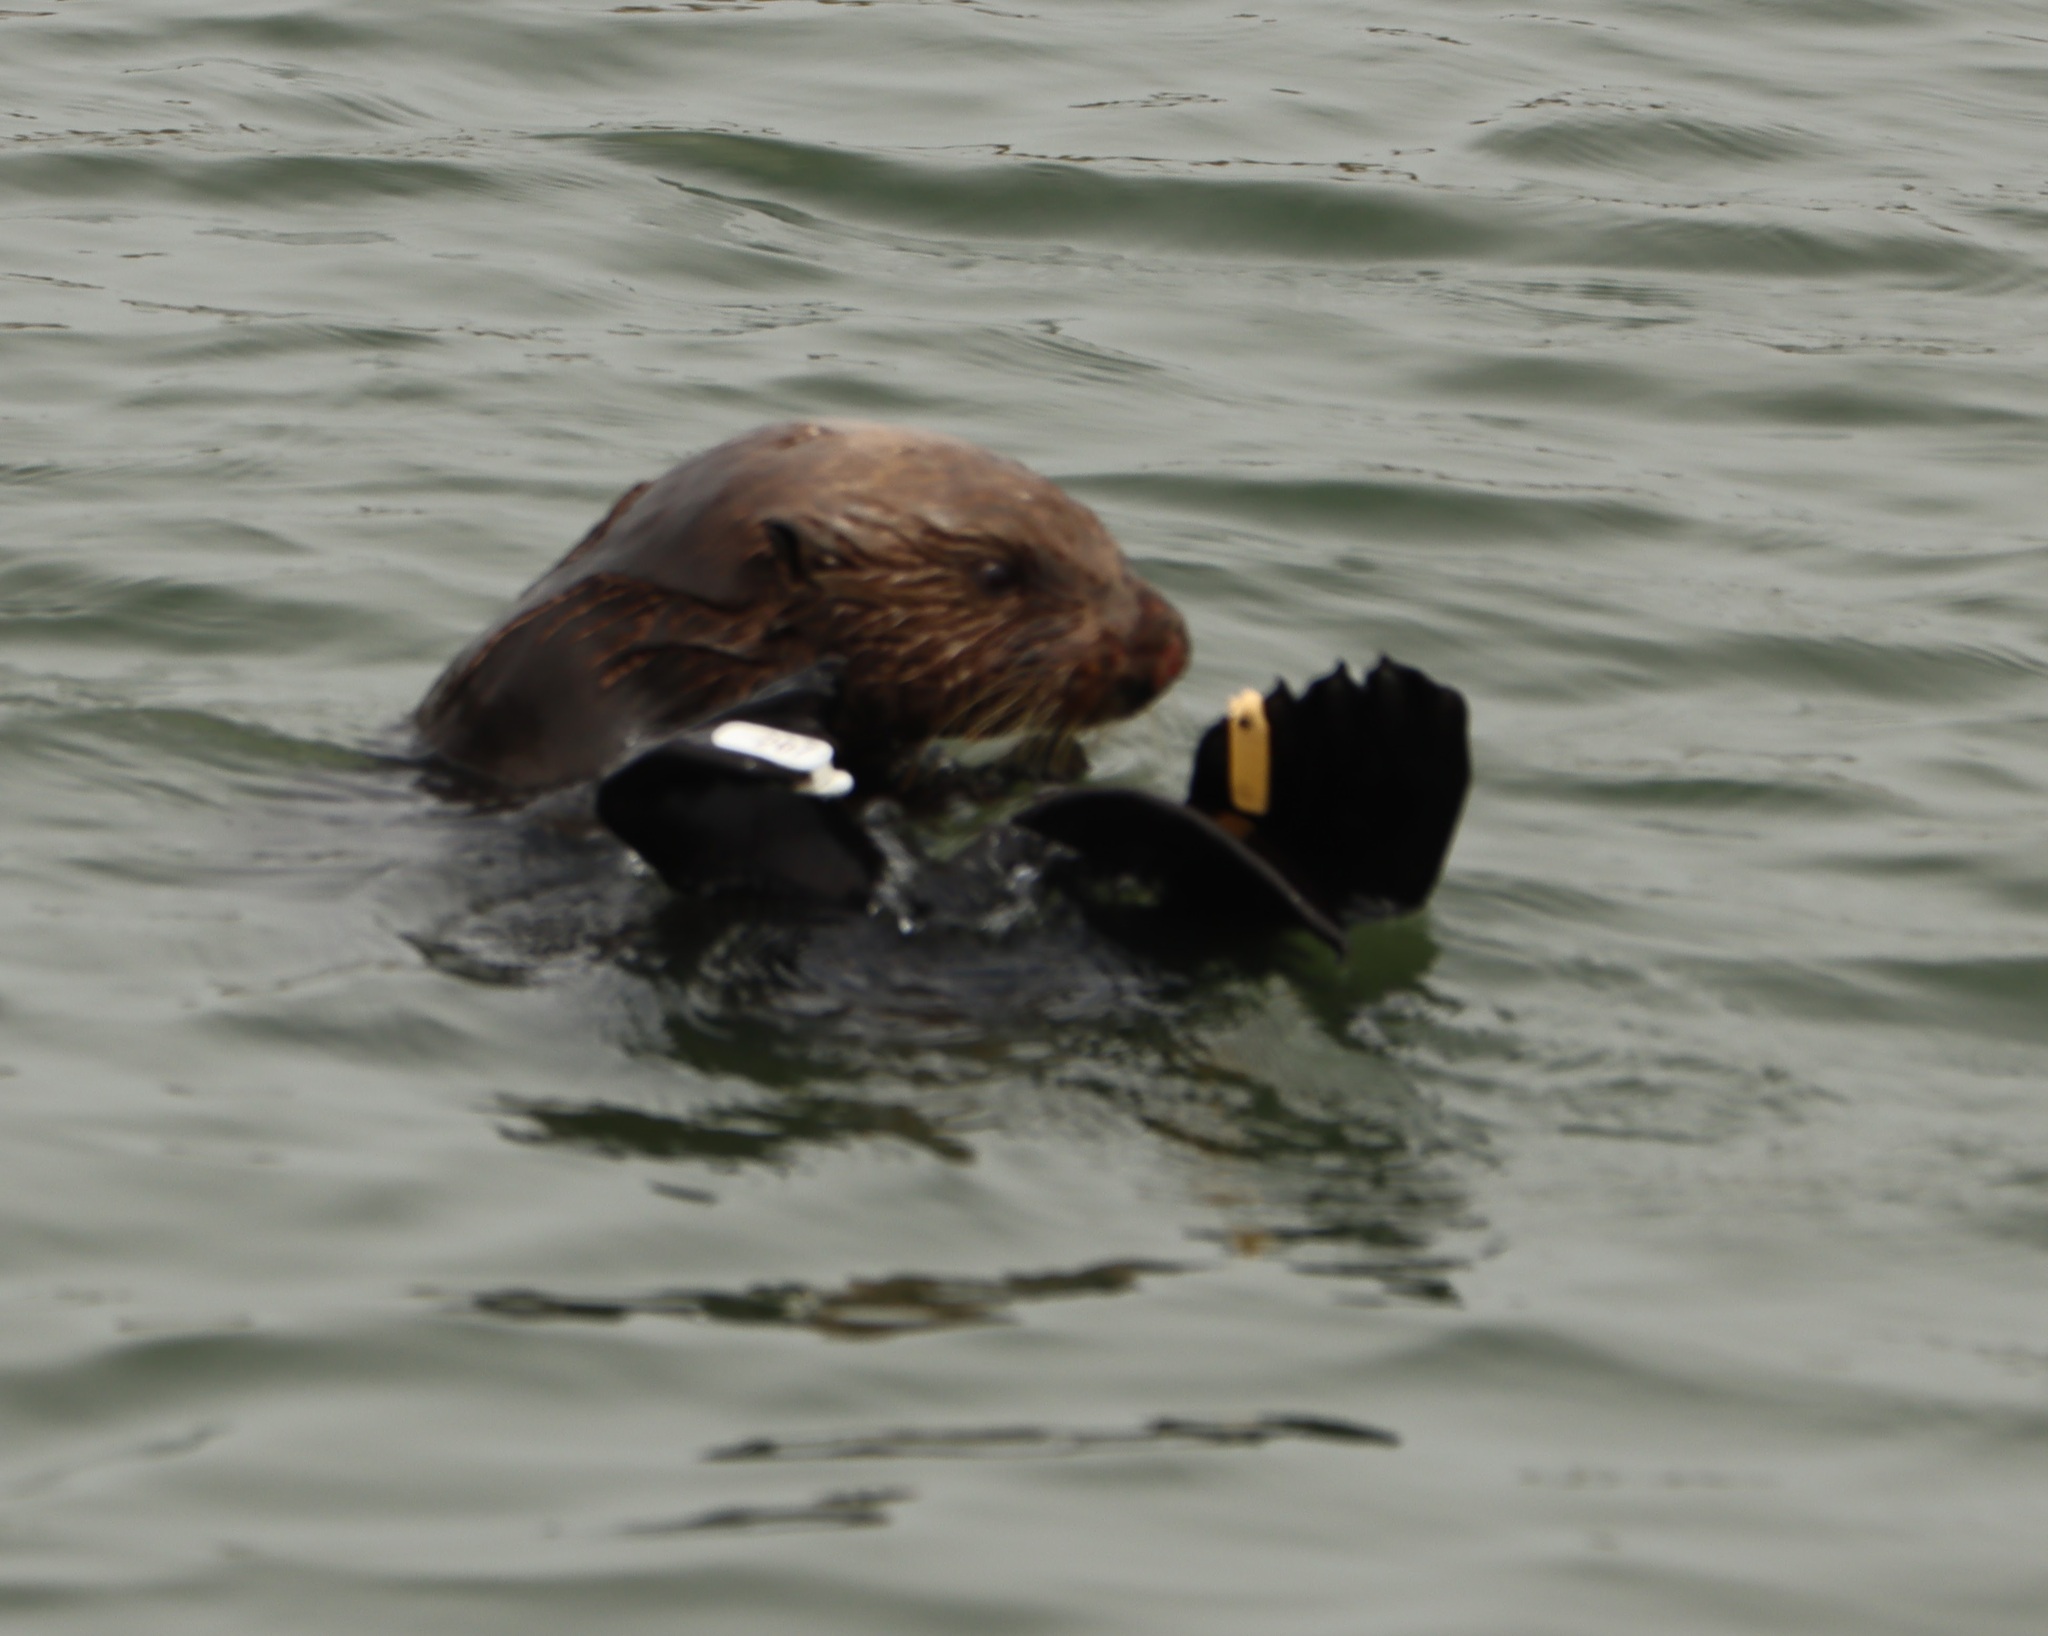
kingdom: Animalia
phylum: Chordata
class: Mammalia
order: Carnivora
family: Mustelidae
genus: Enhydra
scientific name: Enhydra lutris
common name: Sea otter
